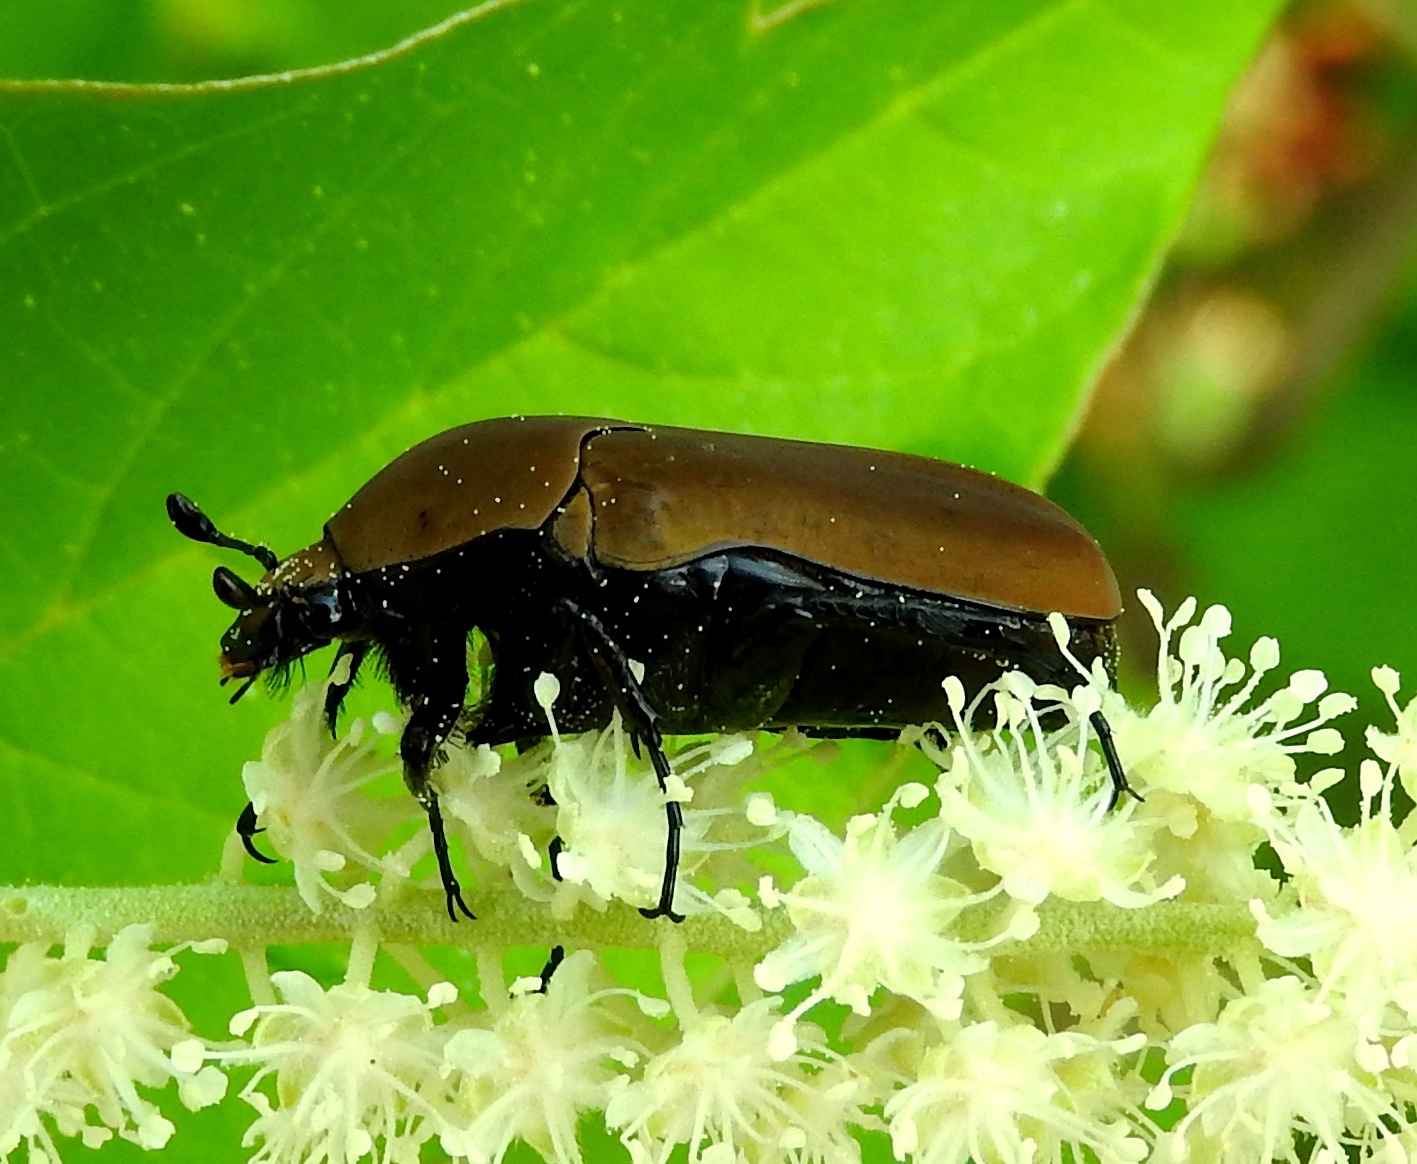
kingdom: Animalia
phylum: Arthropoda
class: Insecta
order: Coleoptera
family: Scarabaeidae
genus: Hologymnetis
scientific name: Hologymnetis cinerea
